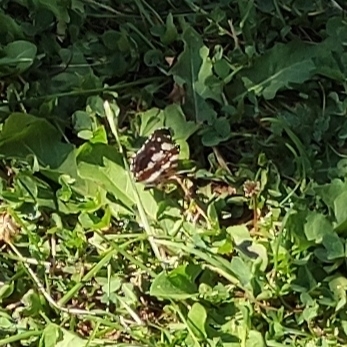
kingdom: Animalia
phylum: Arthropoda
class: Insecta
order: Lepidoptera
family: Nymphalidae
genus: Araschnia
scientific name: Araschnia levana
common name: Map butterfly
